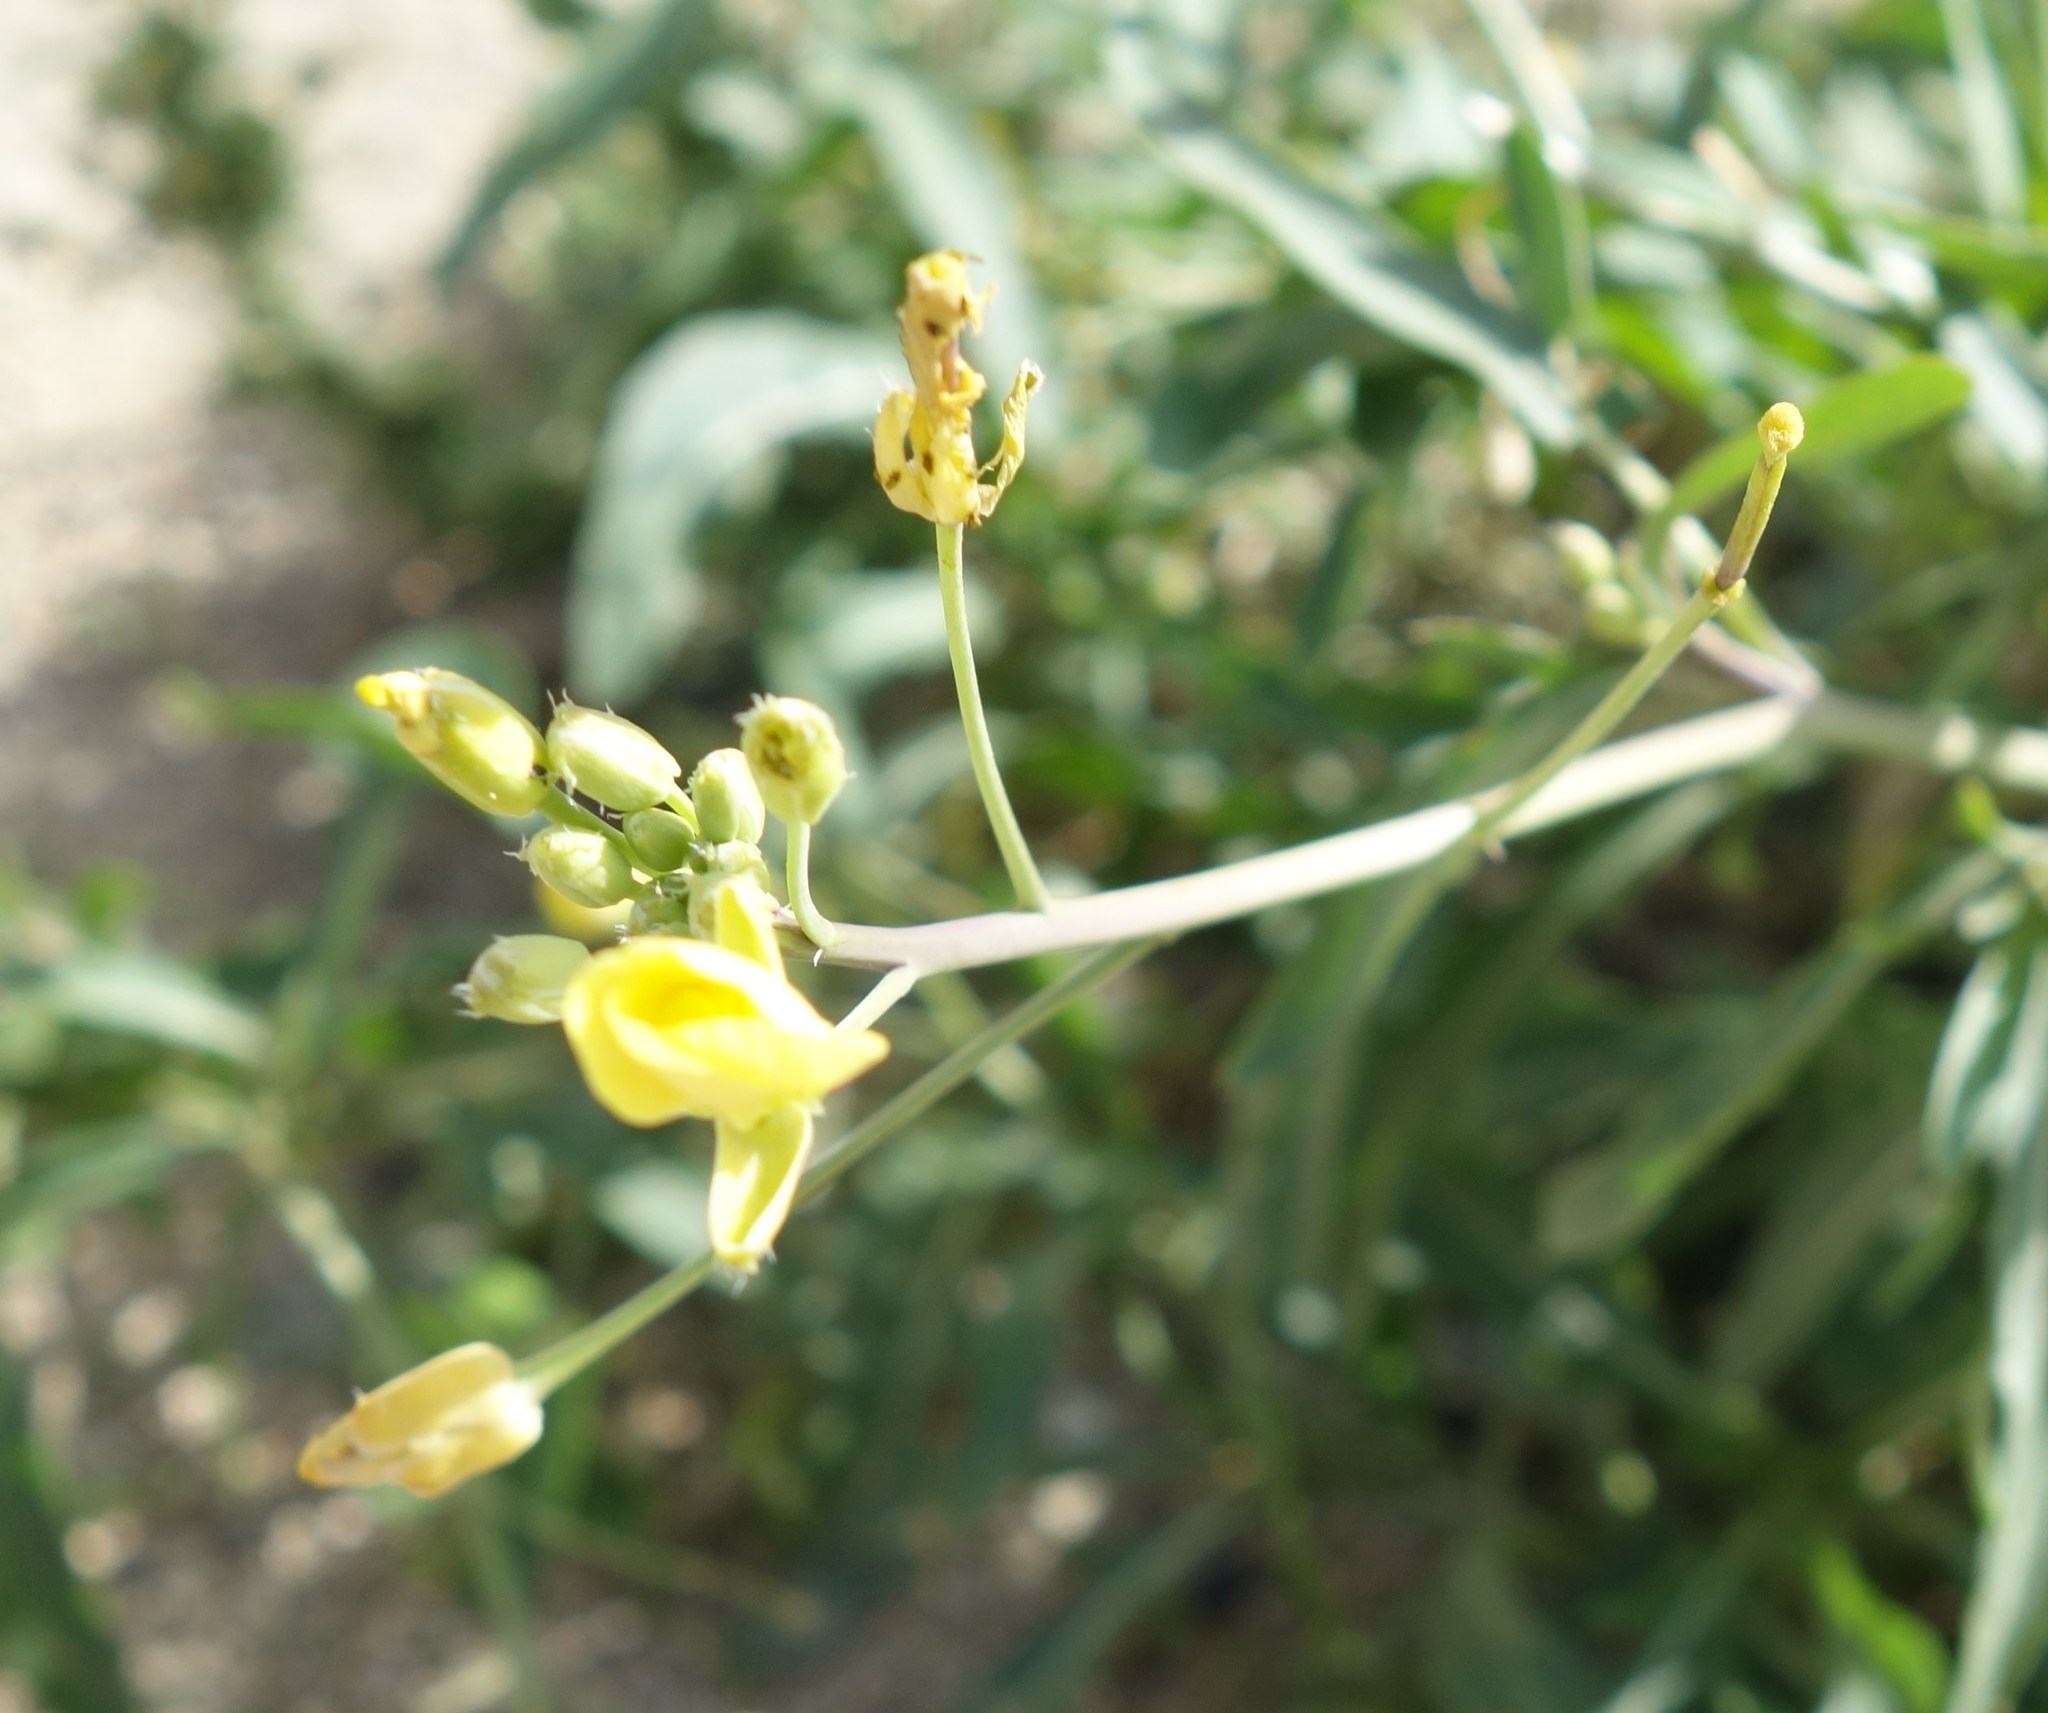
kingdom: Plantae
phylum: Tracheophyta
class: Magnoliopsida
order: Brassicales
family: Brassicaceae
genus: Diplotaxis
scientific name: Diplotaxis tenuifolia
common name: Perennial wall-rocket
